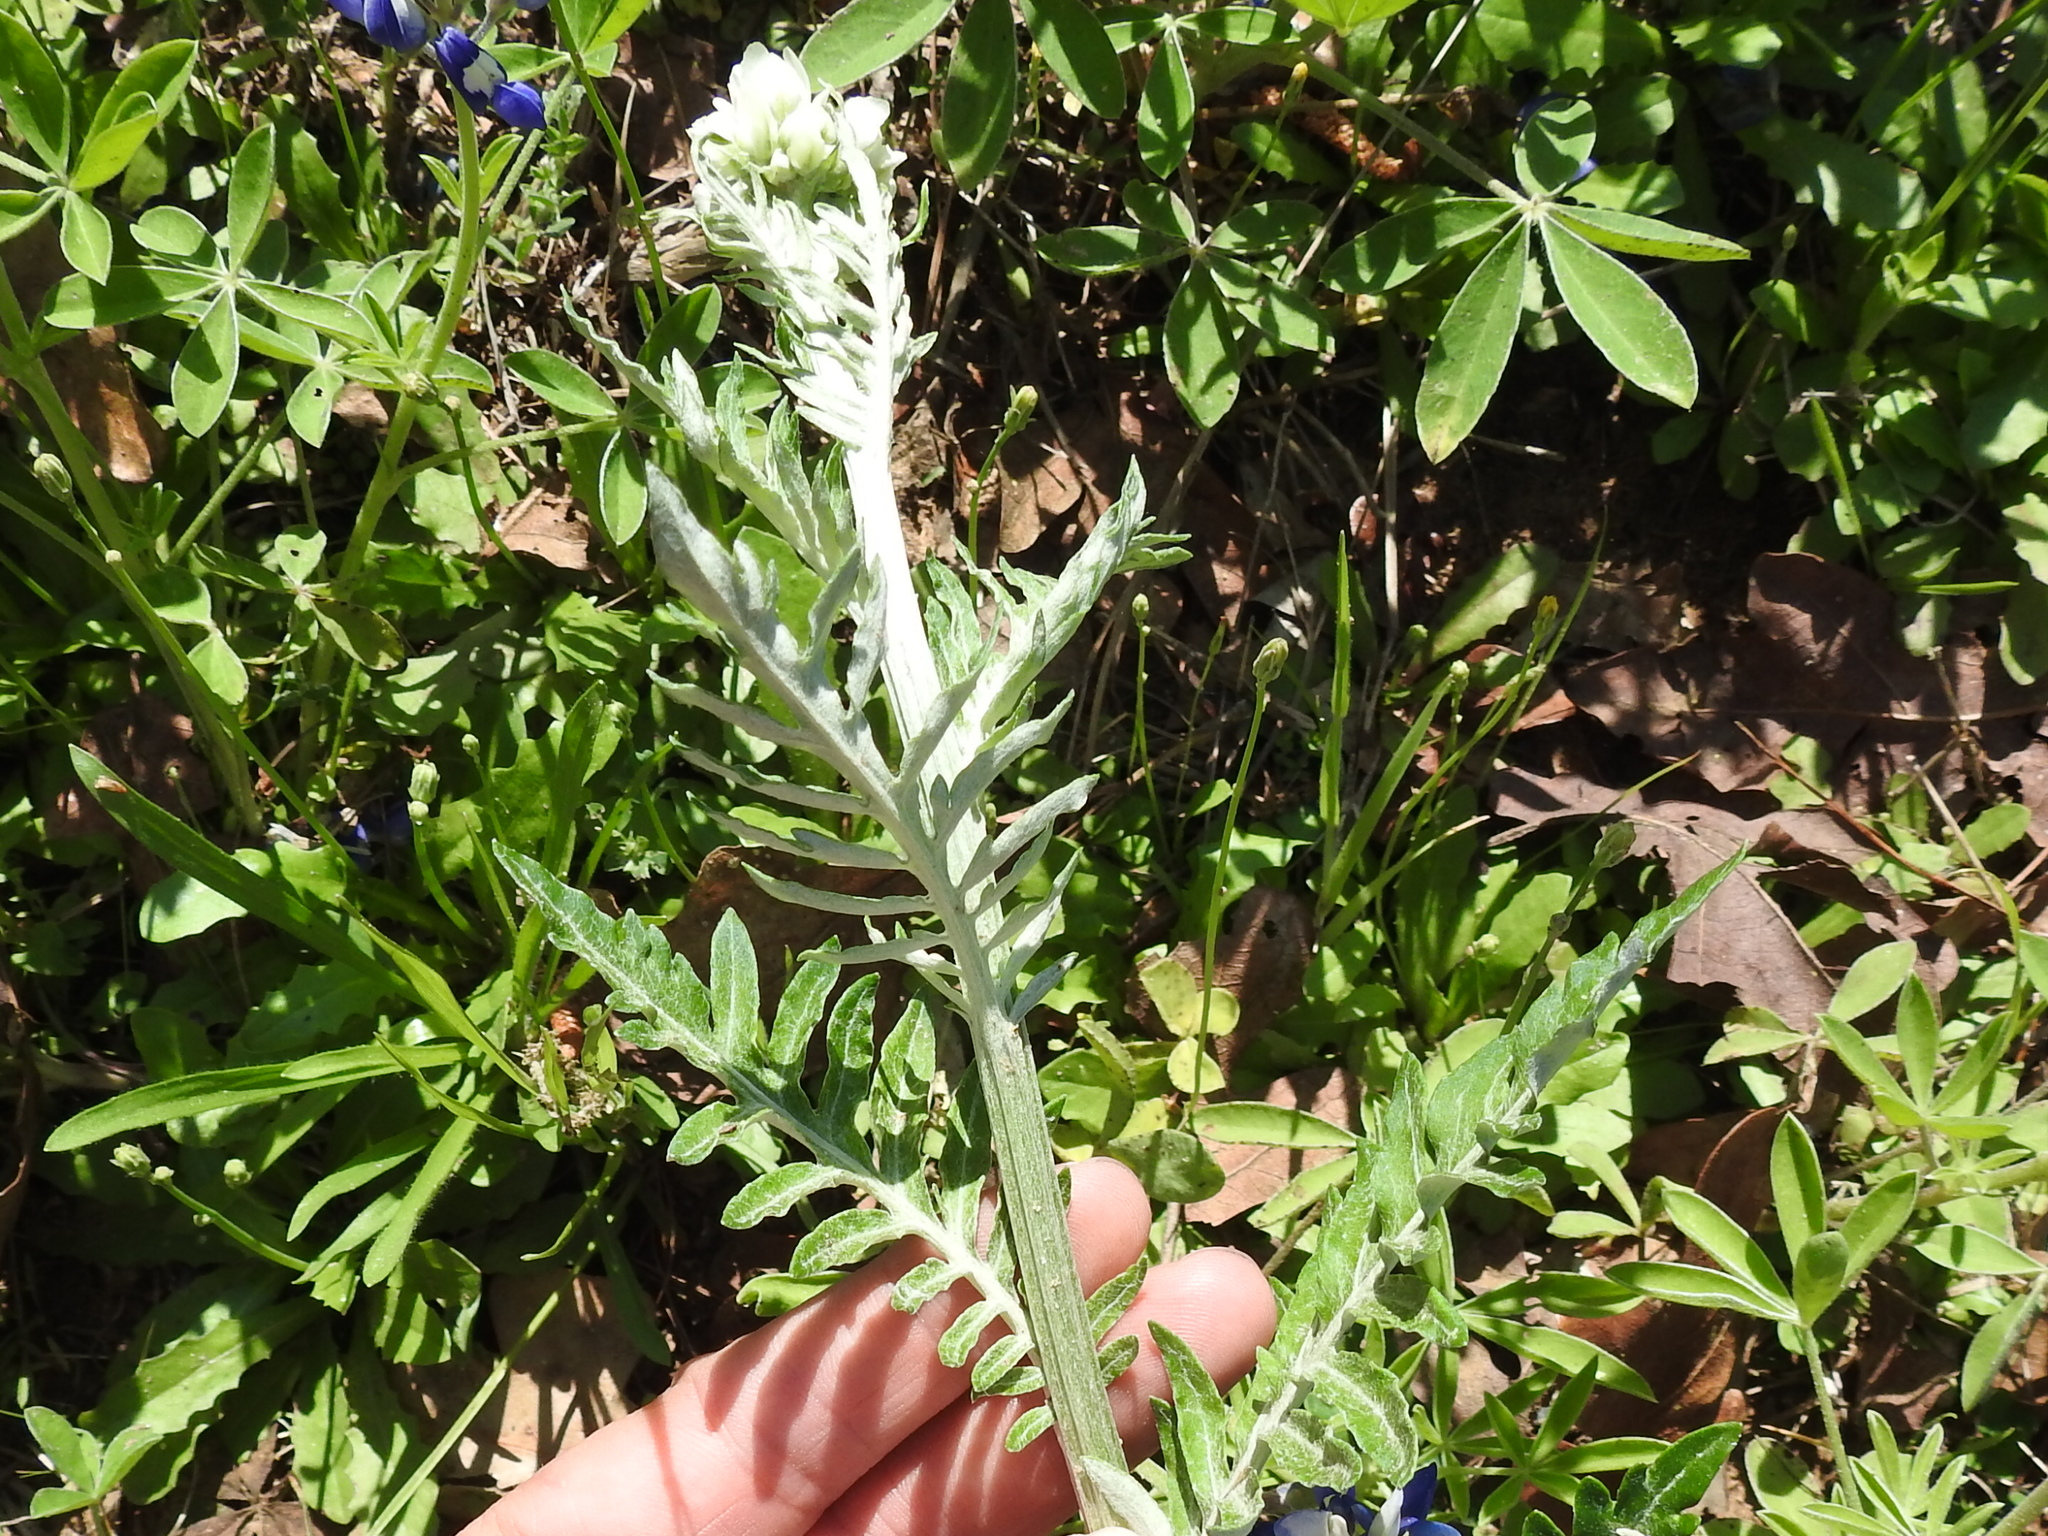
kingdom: Plantae
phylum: Tracheophyta
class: Magnoliopsida
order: Asterales
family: Asteraceae
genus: Hymenopappus
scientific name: Hymenopappus artemisiifolius
